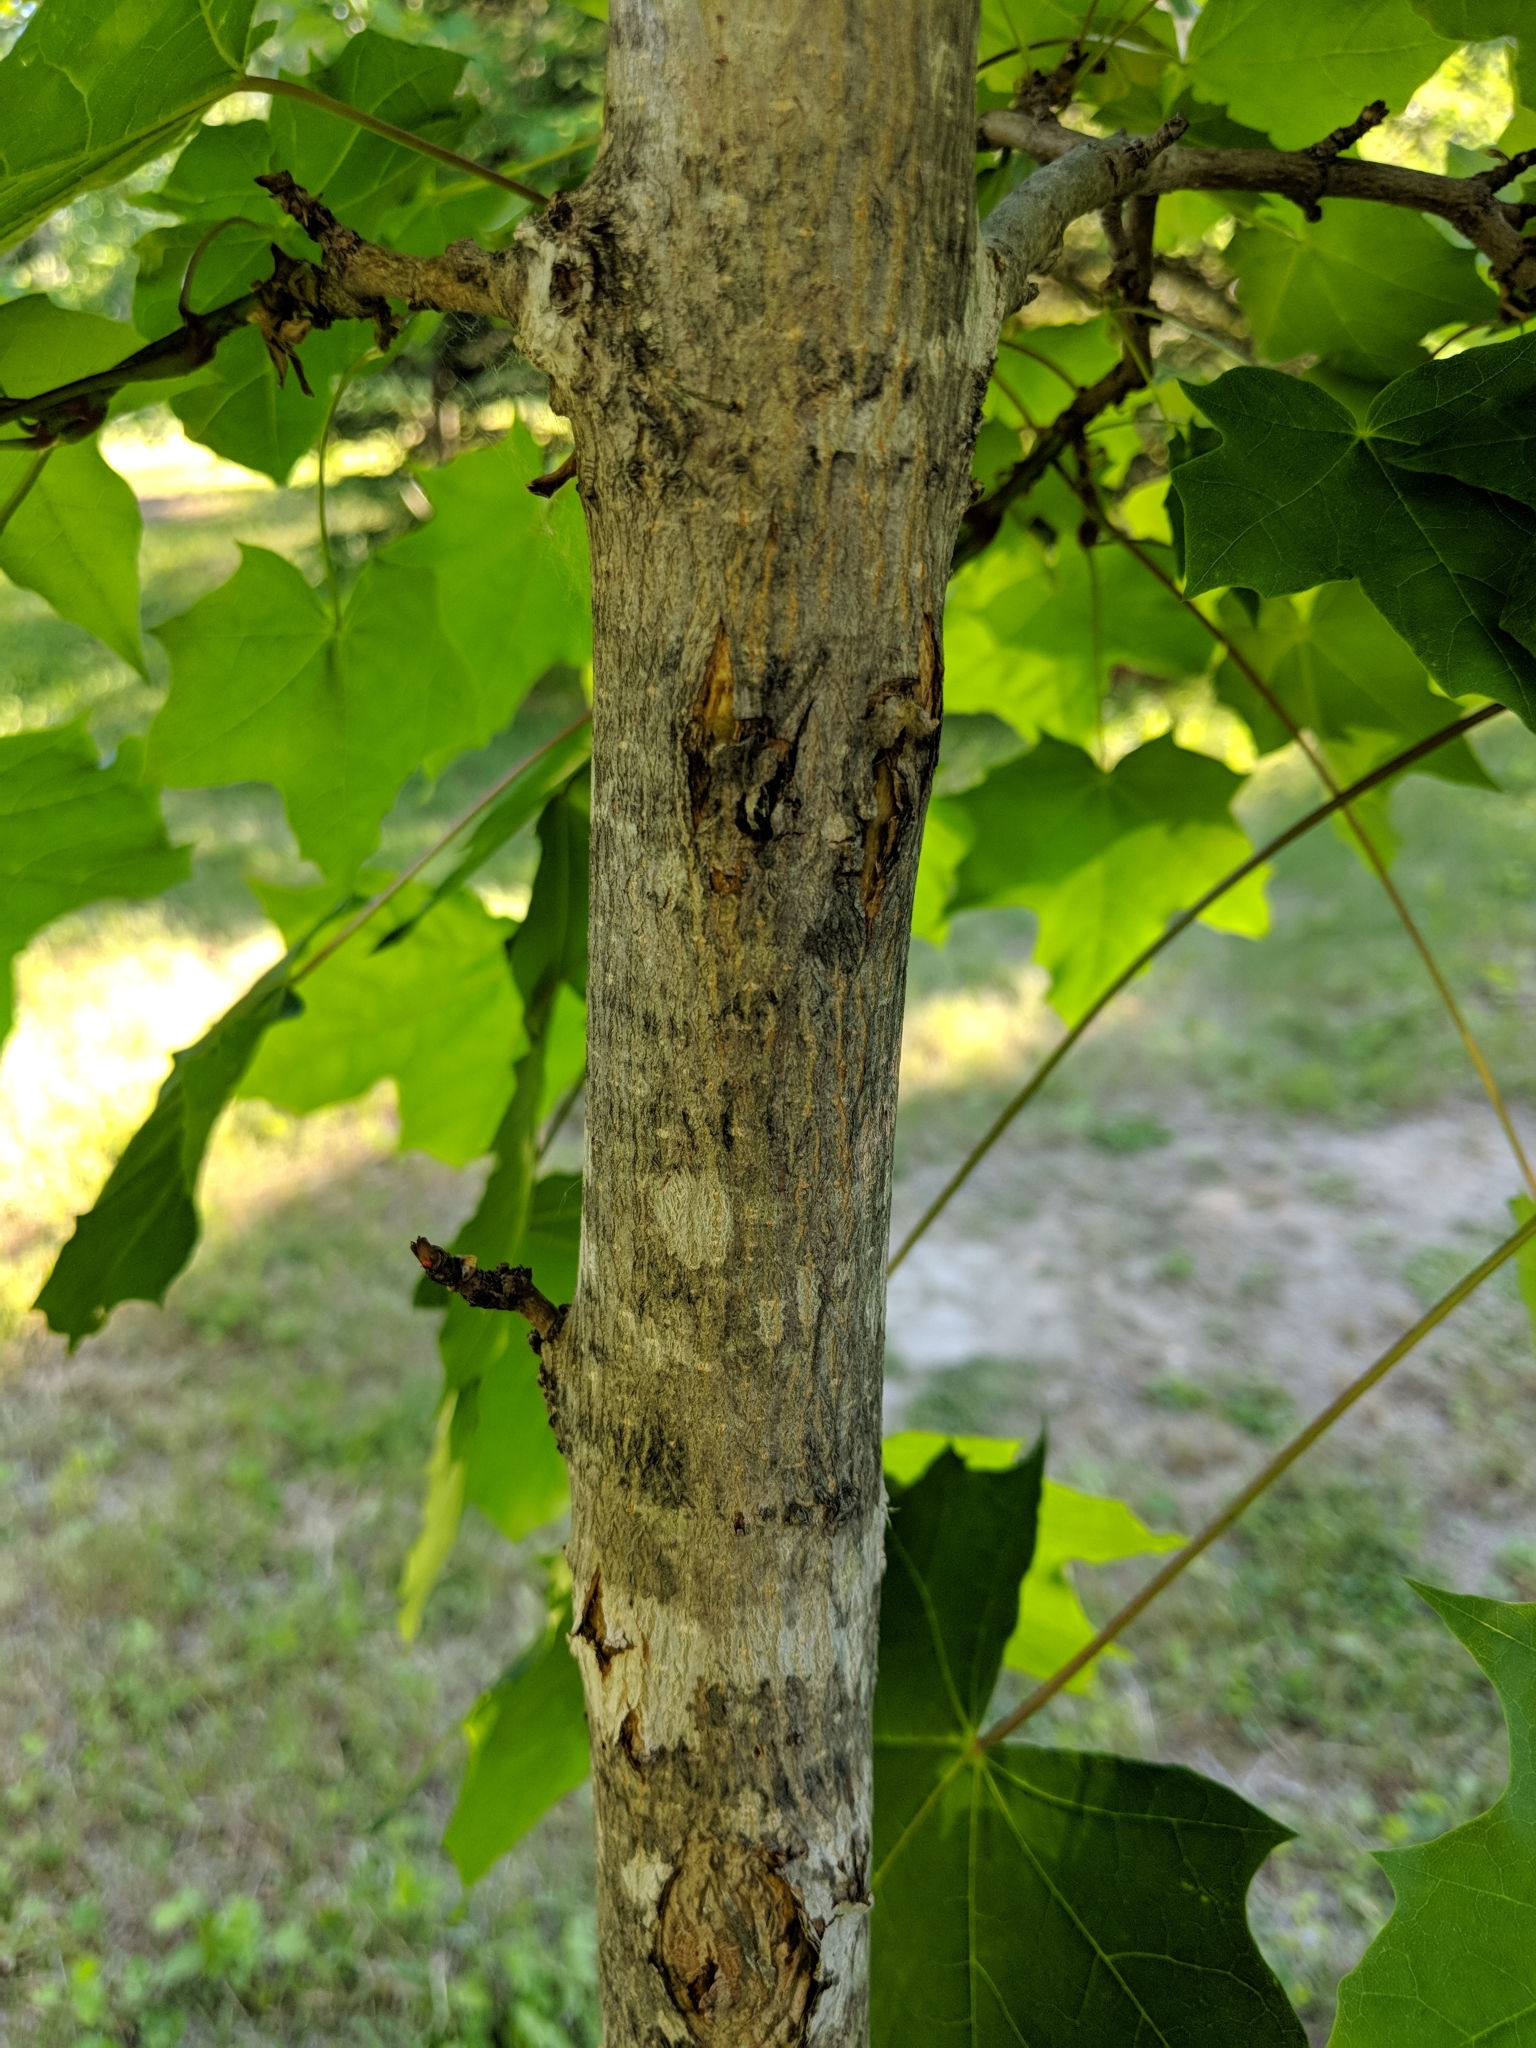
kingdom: Plantae
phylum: Tracheophyta
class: Magnoliopsida
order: Sapindales
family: Sapindaceae
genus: Acer
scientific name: Acer saccharum
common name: Sugar maple
